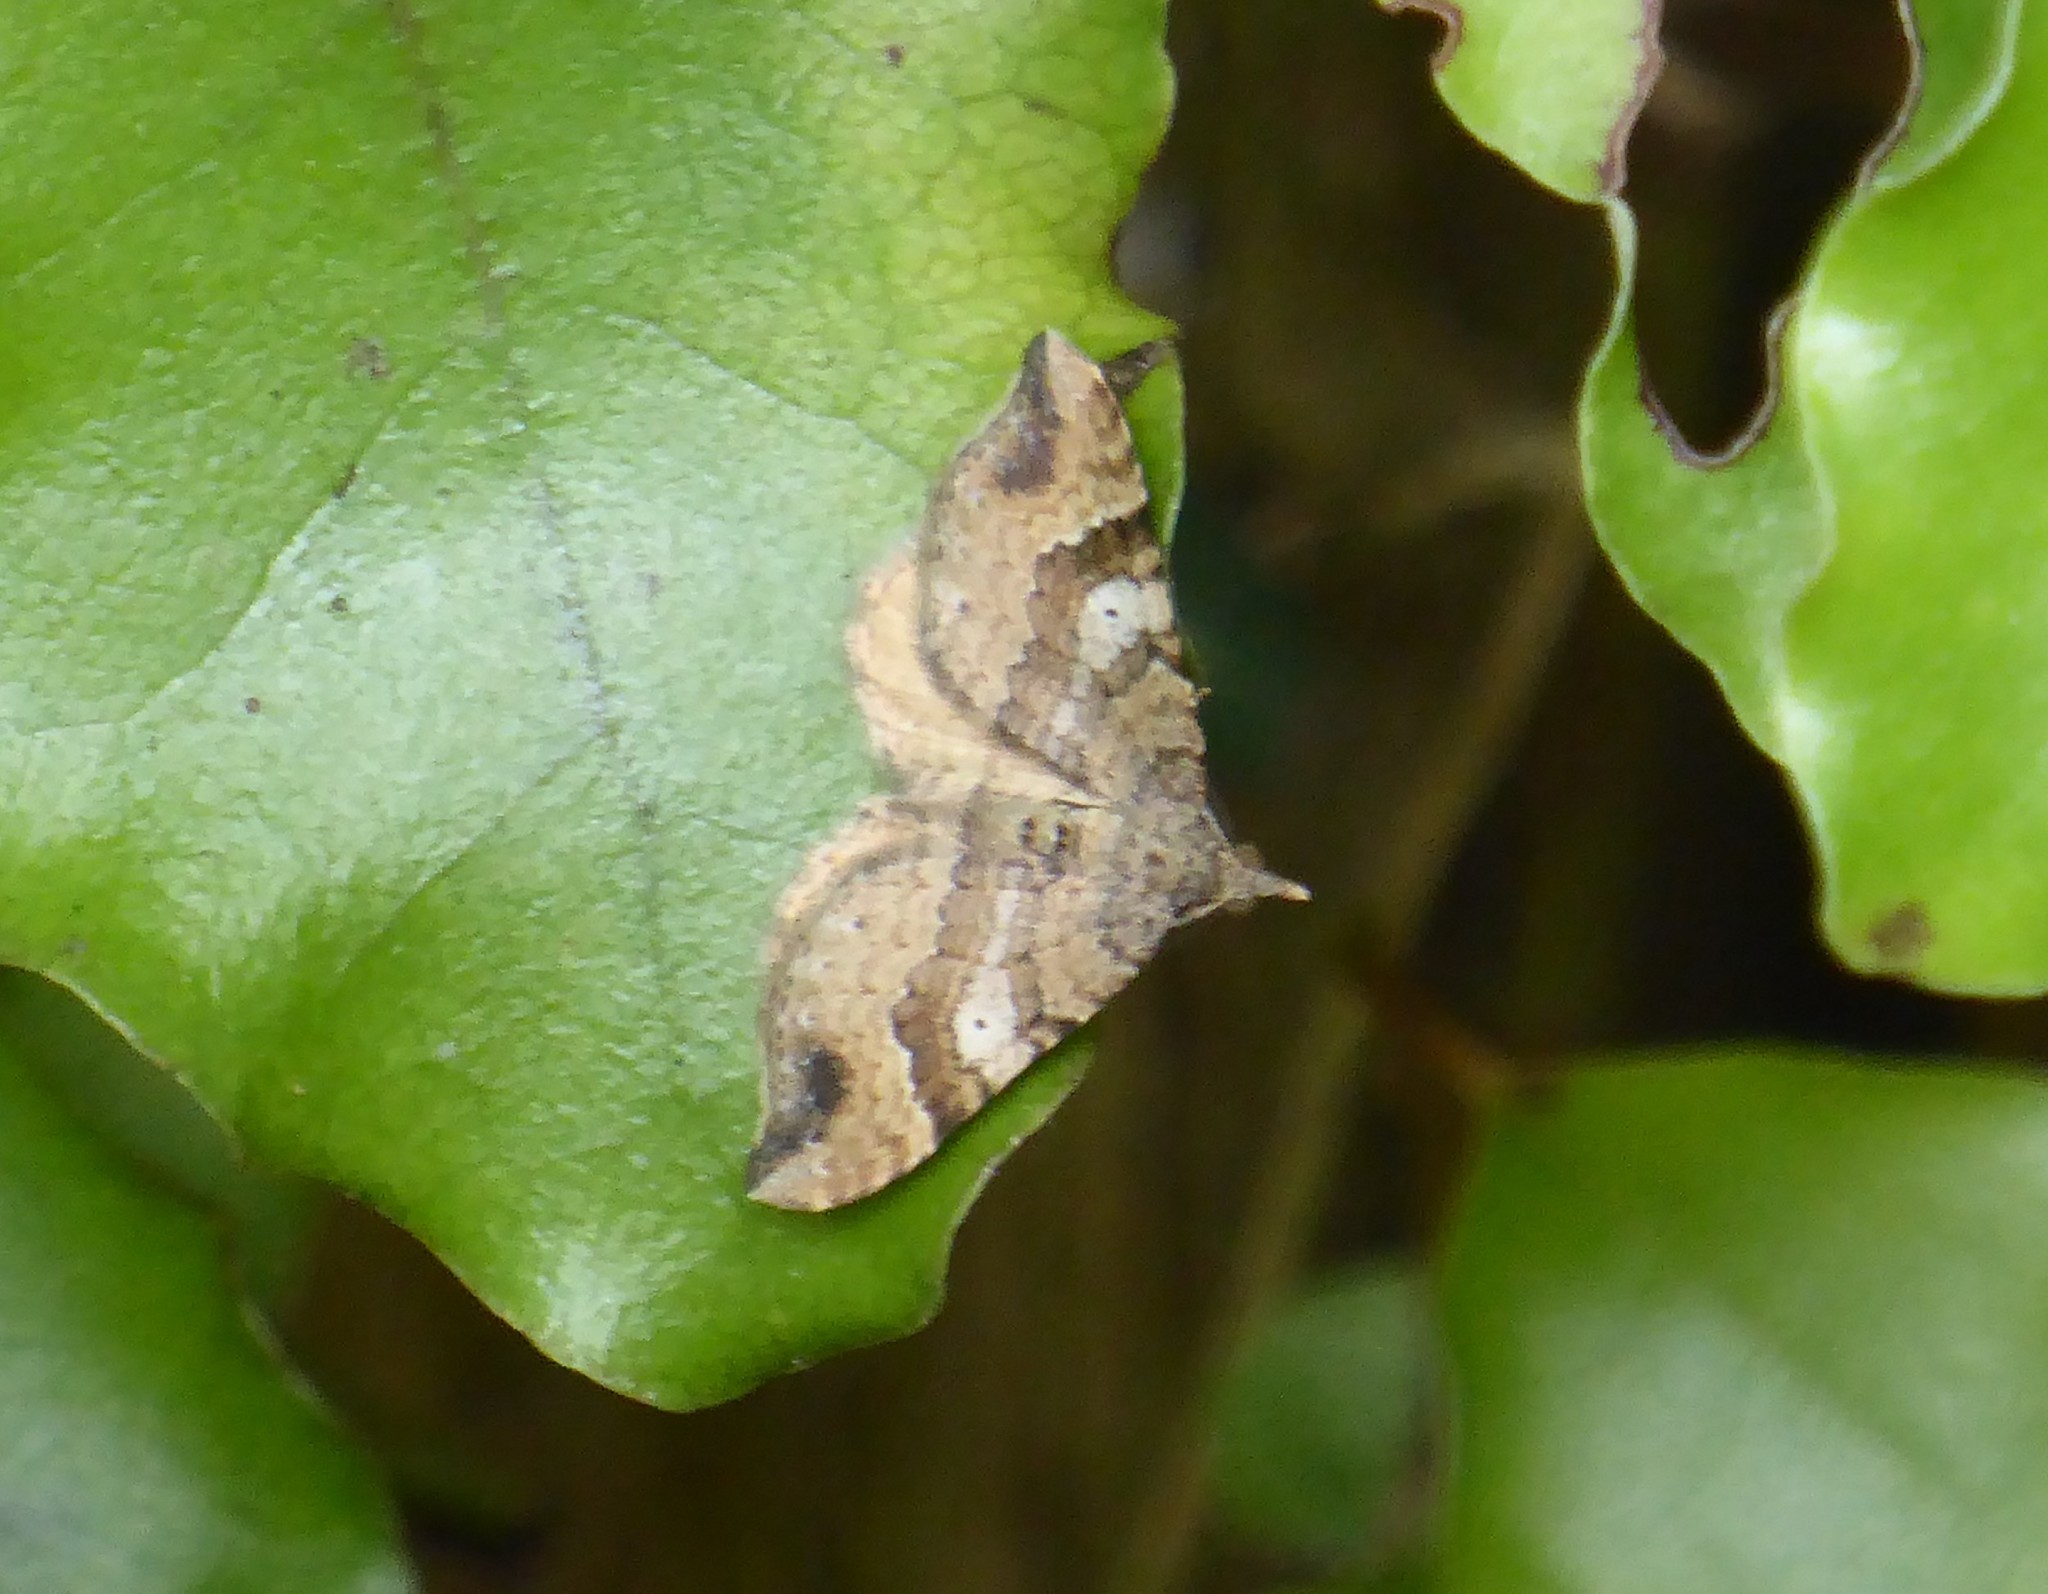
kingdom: Animalia
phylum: Arthropoda
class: Insecta
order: Lepidoptera
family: Geometridae
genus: Homodotis
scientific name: Homodotis megaspilata
